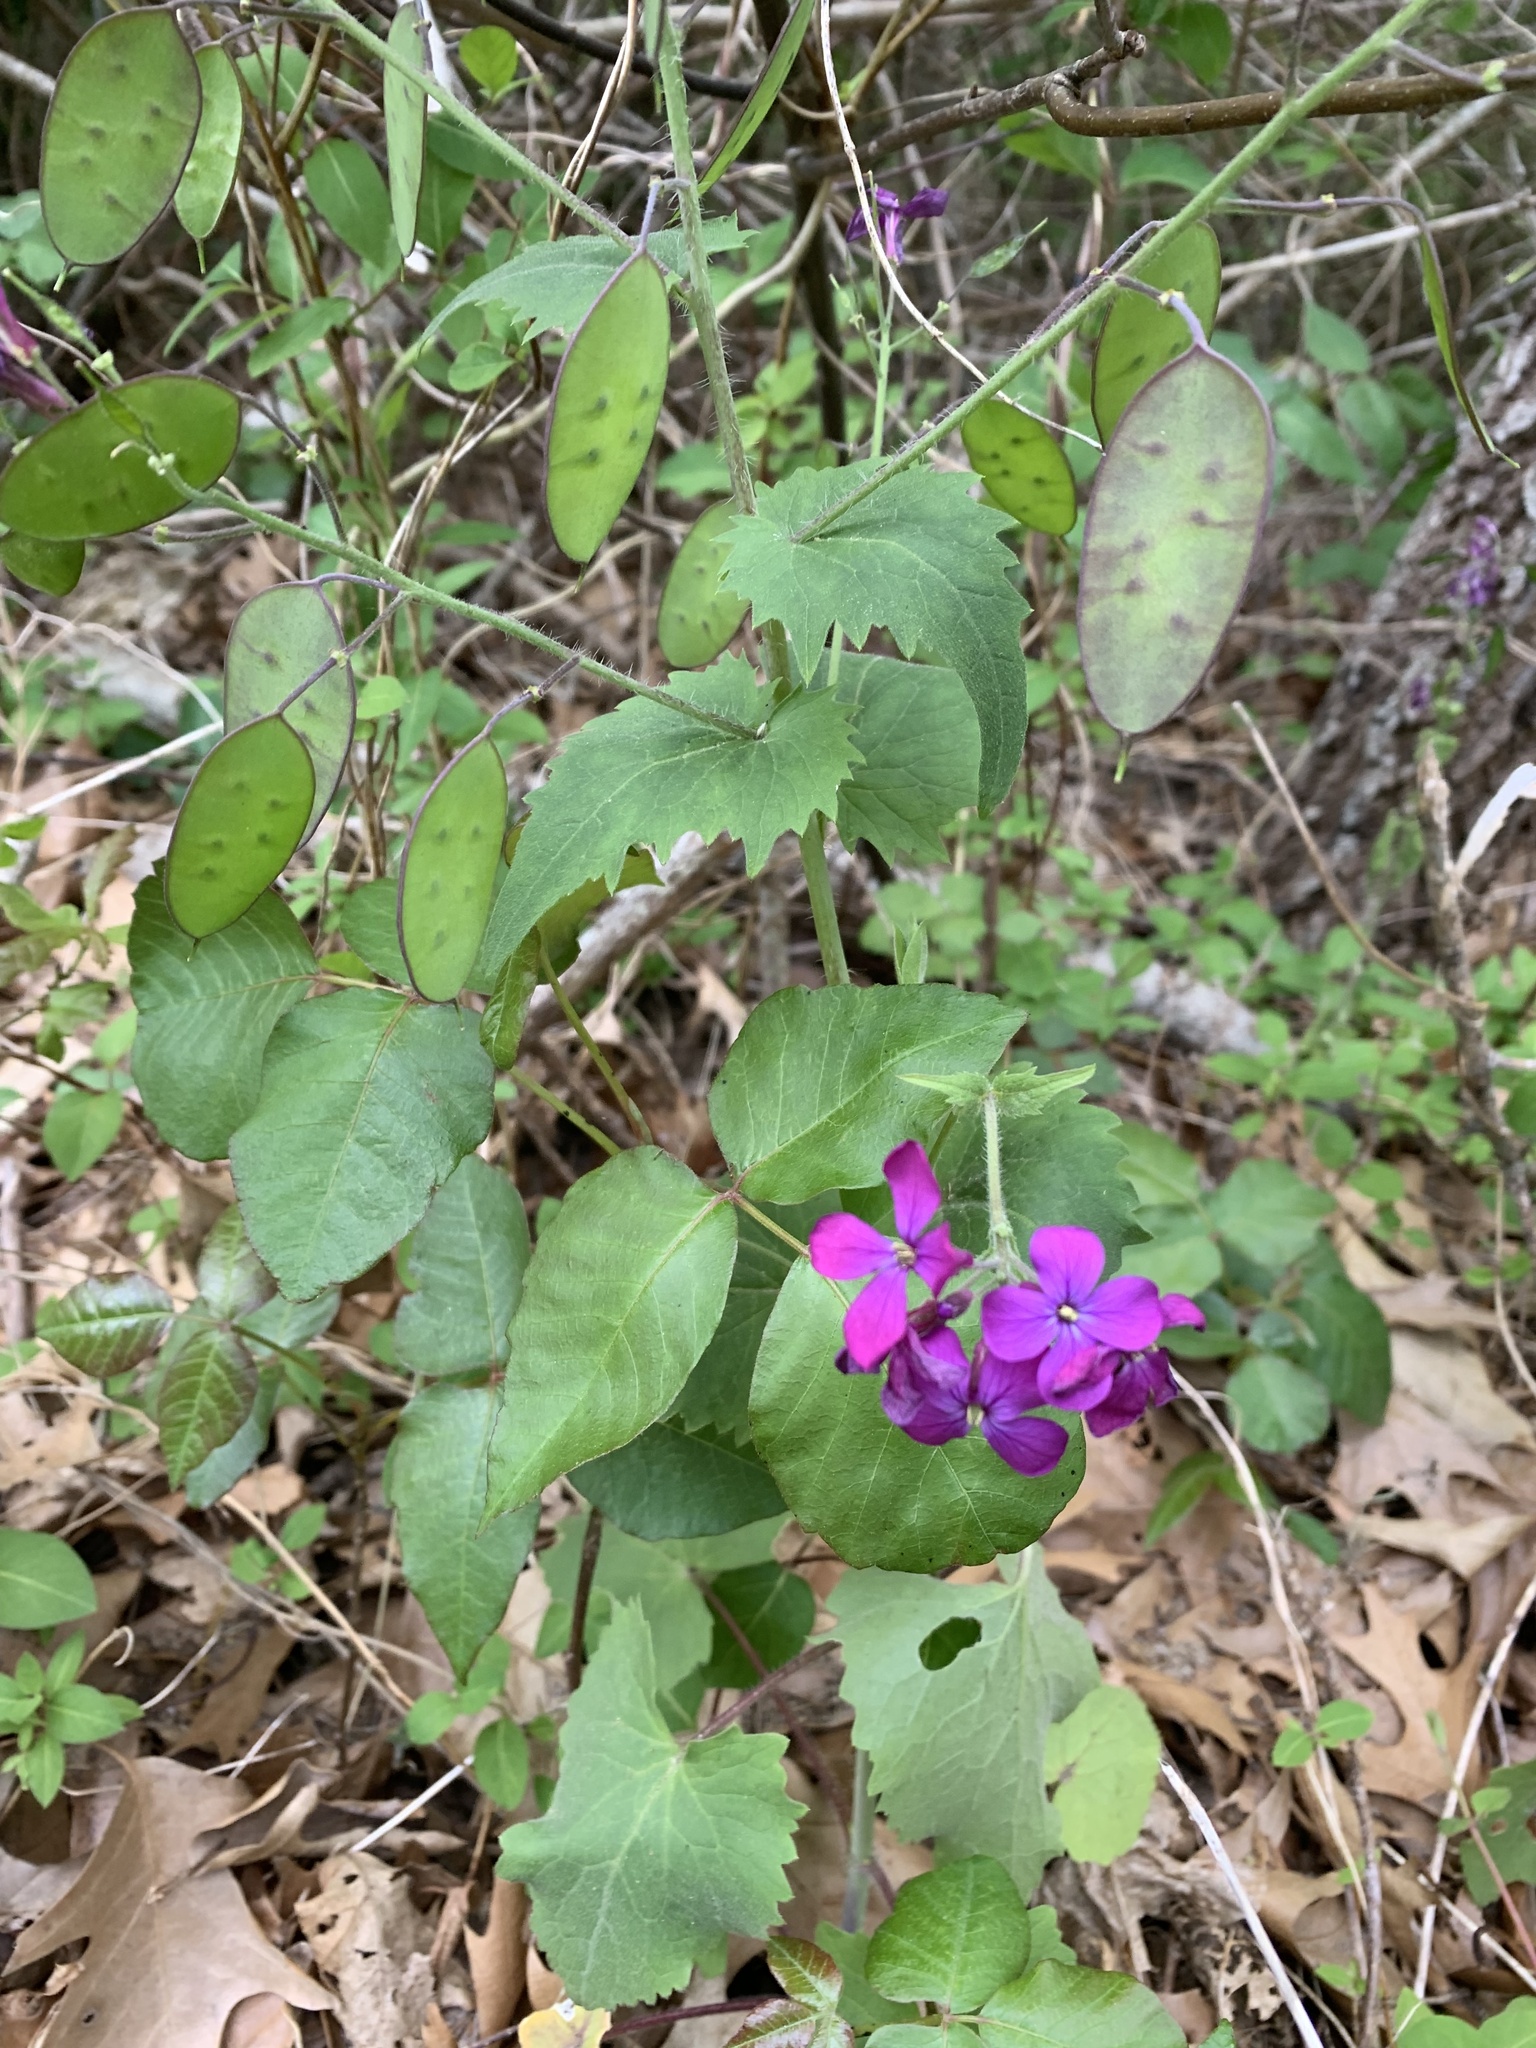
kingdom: Plantae
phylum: Tracheophyta
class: Magnoliopsida
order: Brassicales
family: Brassicaceae
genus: Lunaria
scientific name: Lunaria annua
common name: Honesty
